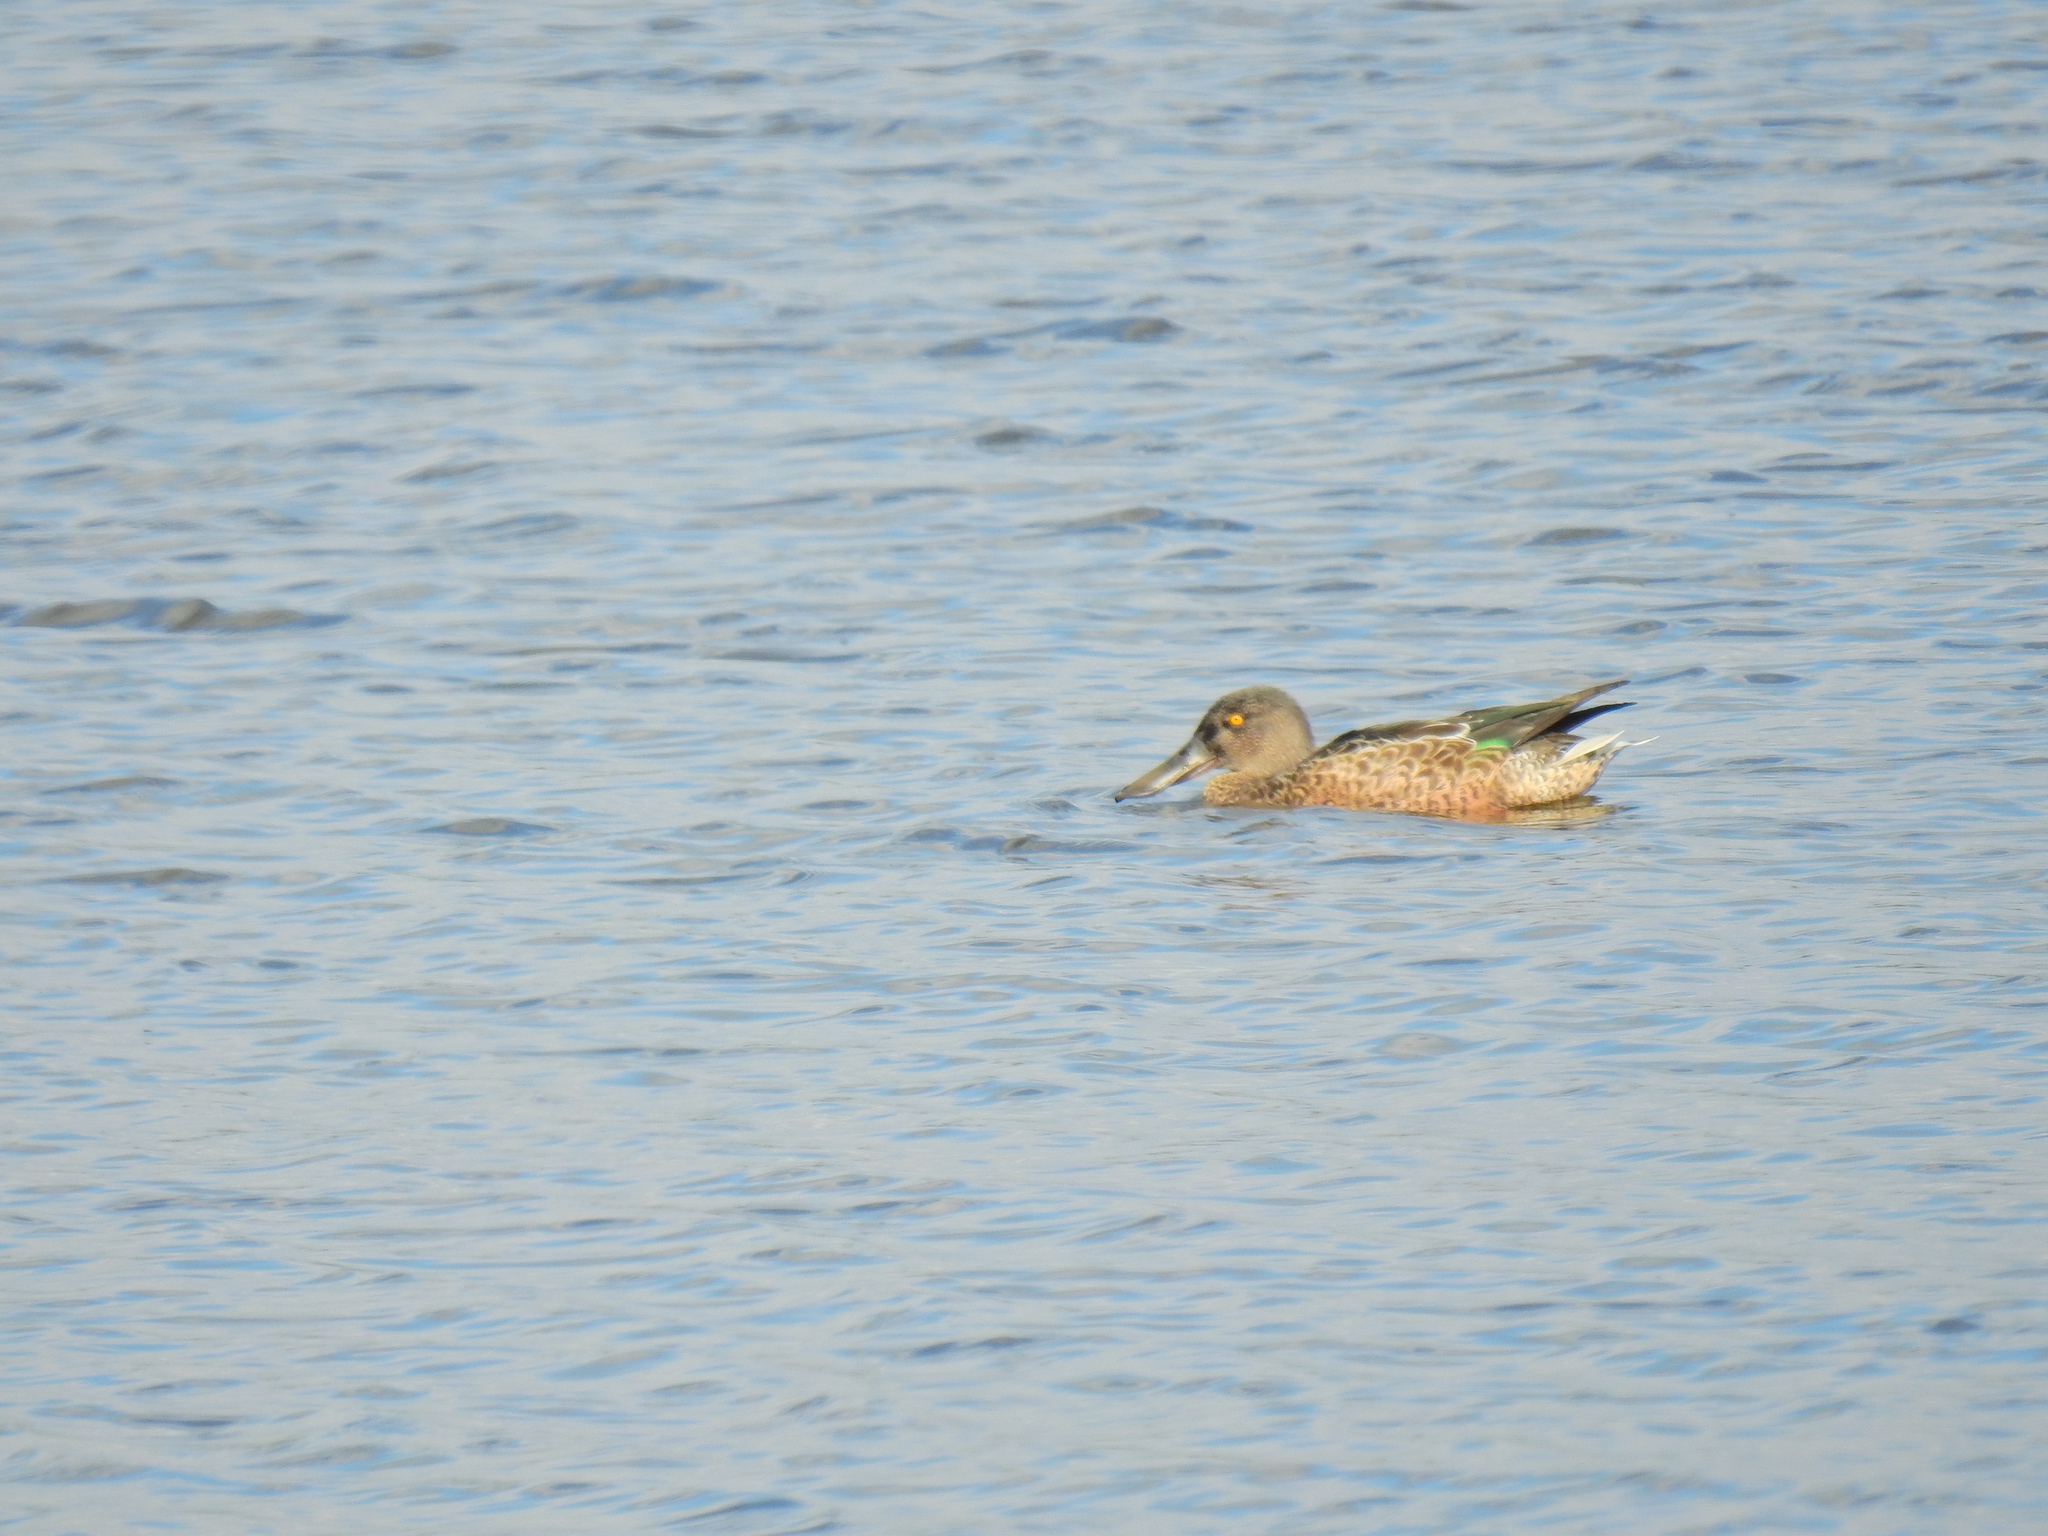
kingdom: Animalia
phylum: Chordata
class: Aves
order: Anseriformes
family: Anatidae
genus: Spatula
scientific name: Spatula clypeata
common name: Northern shoveler
